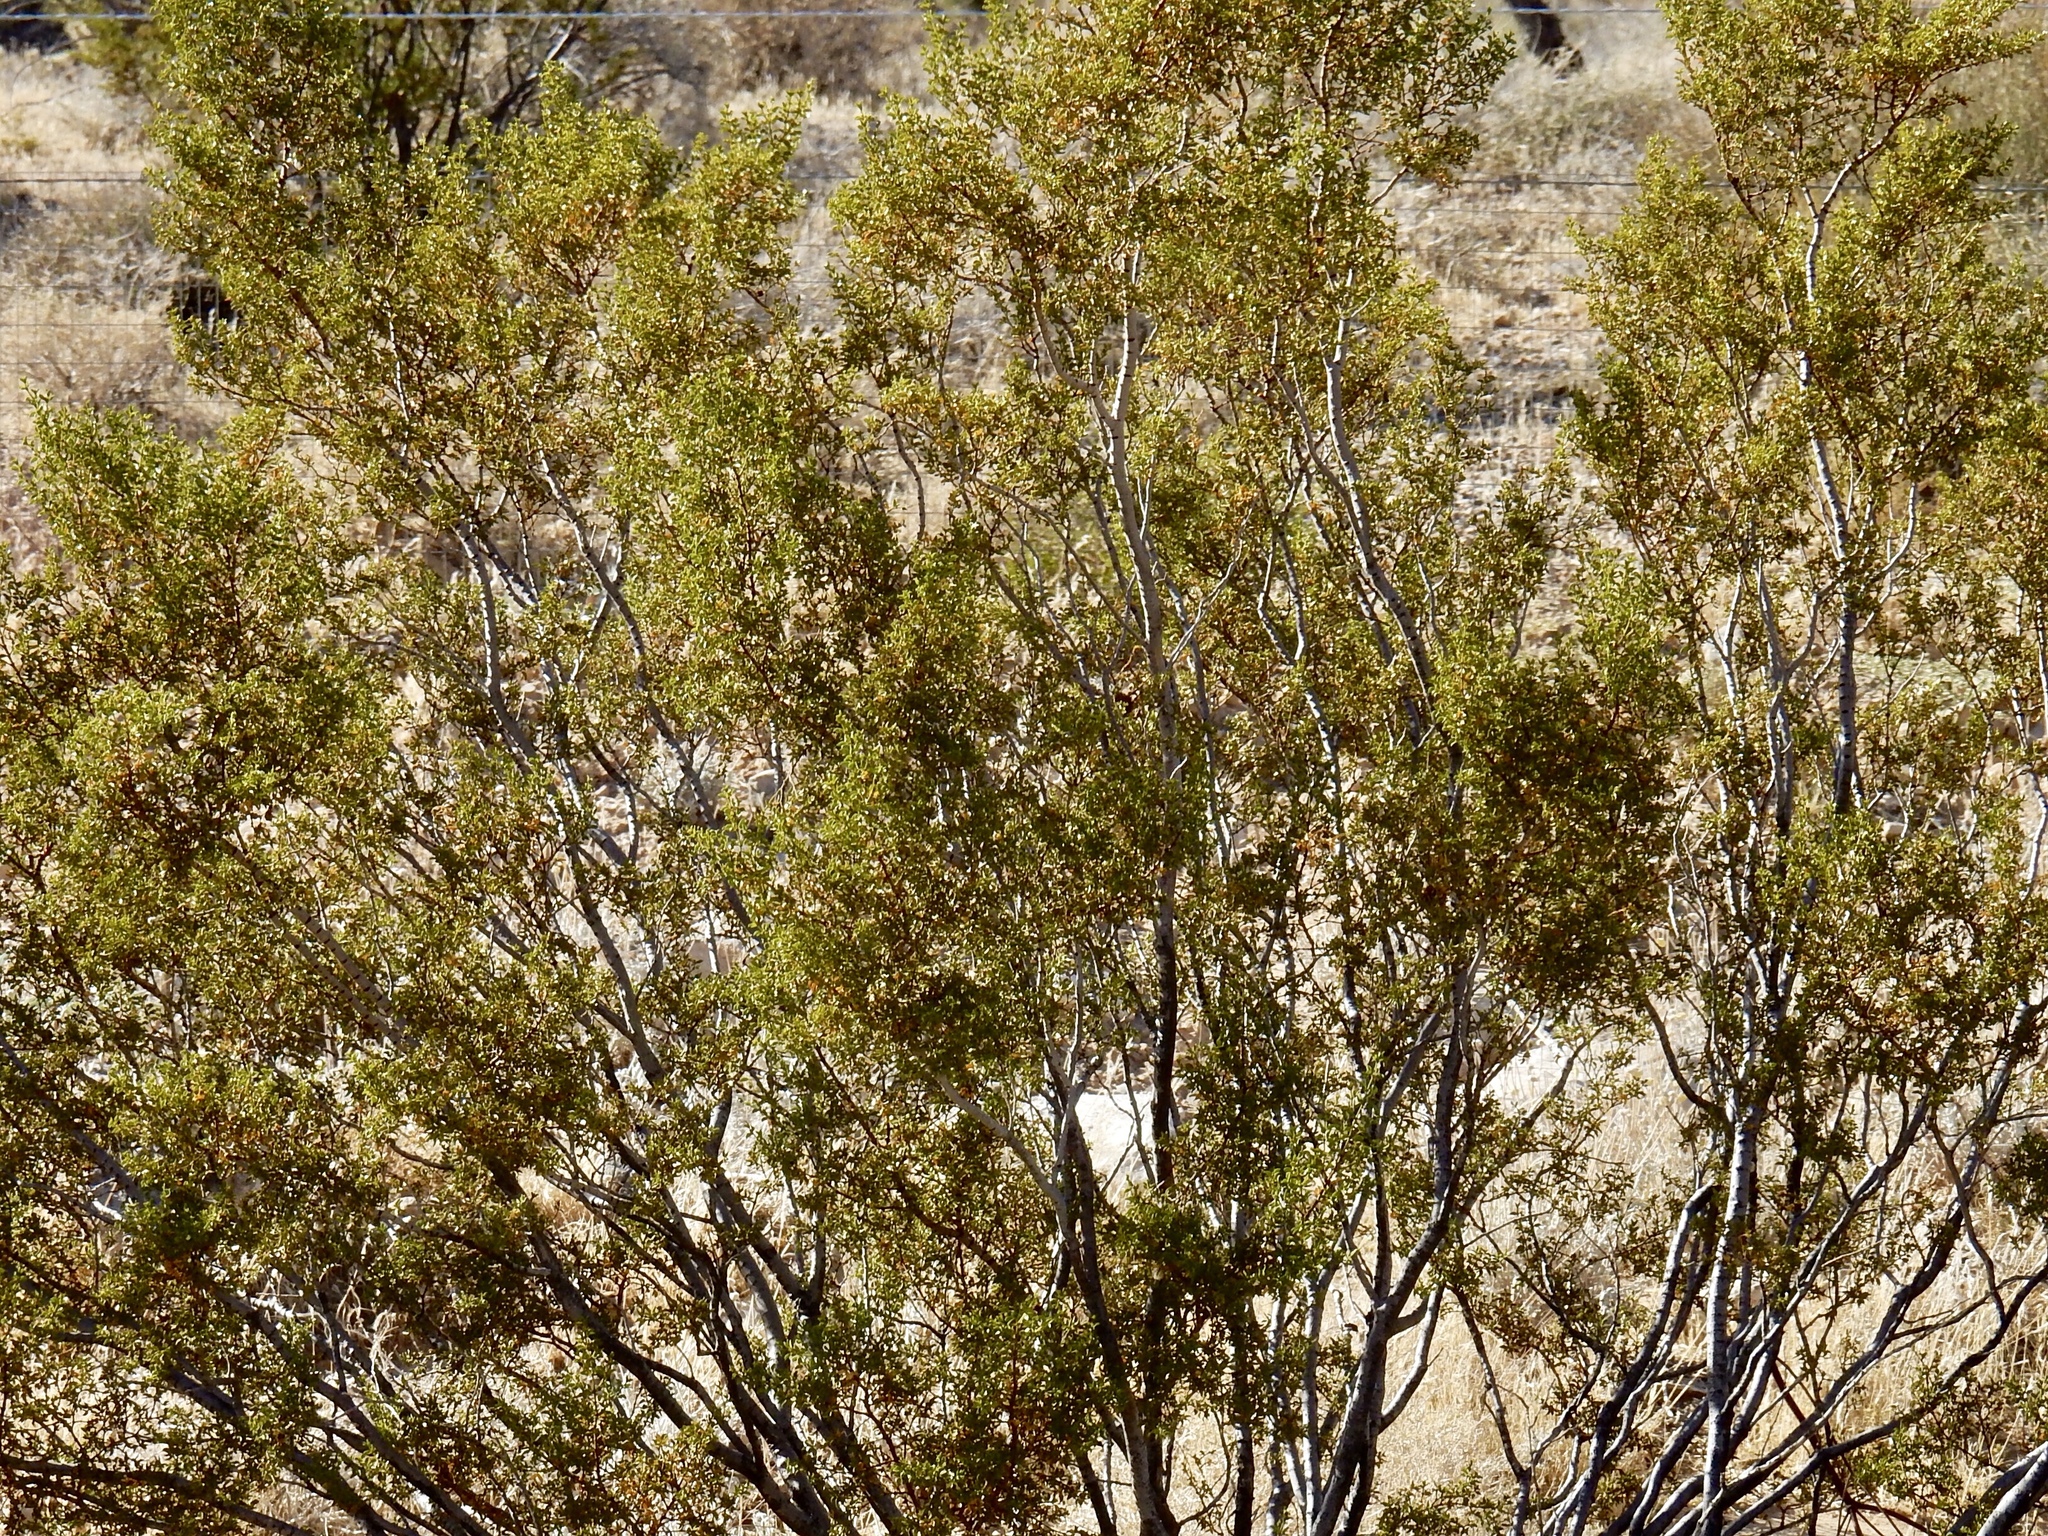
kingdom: Plantae
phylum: Tracheophyta
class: Magnoliopsida
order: Zygophyllales
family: Zygophyllaceae
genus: Larrea
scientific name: Larrea tridentata
